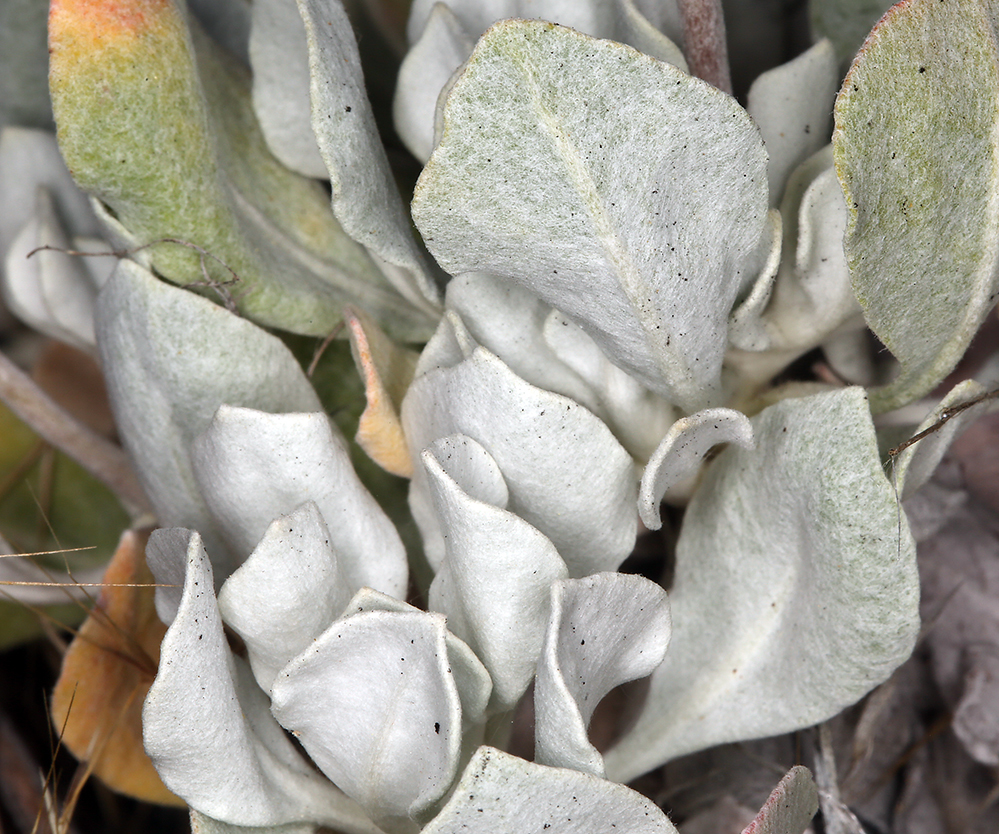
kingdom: Plantae
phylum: Tracheophyta
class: Magnoliopsida
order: Caryophyllales
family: Polygonaceae
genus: Eriogonum
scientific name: Eriogonum saxatile
